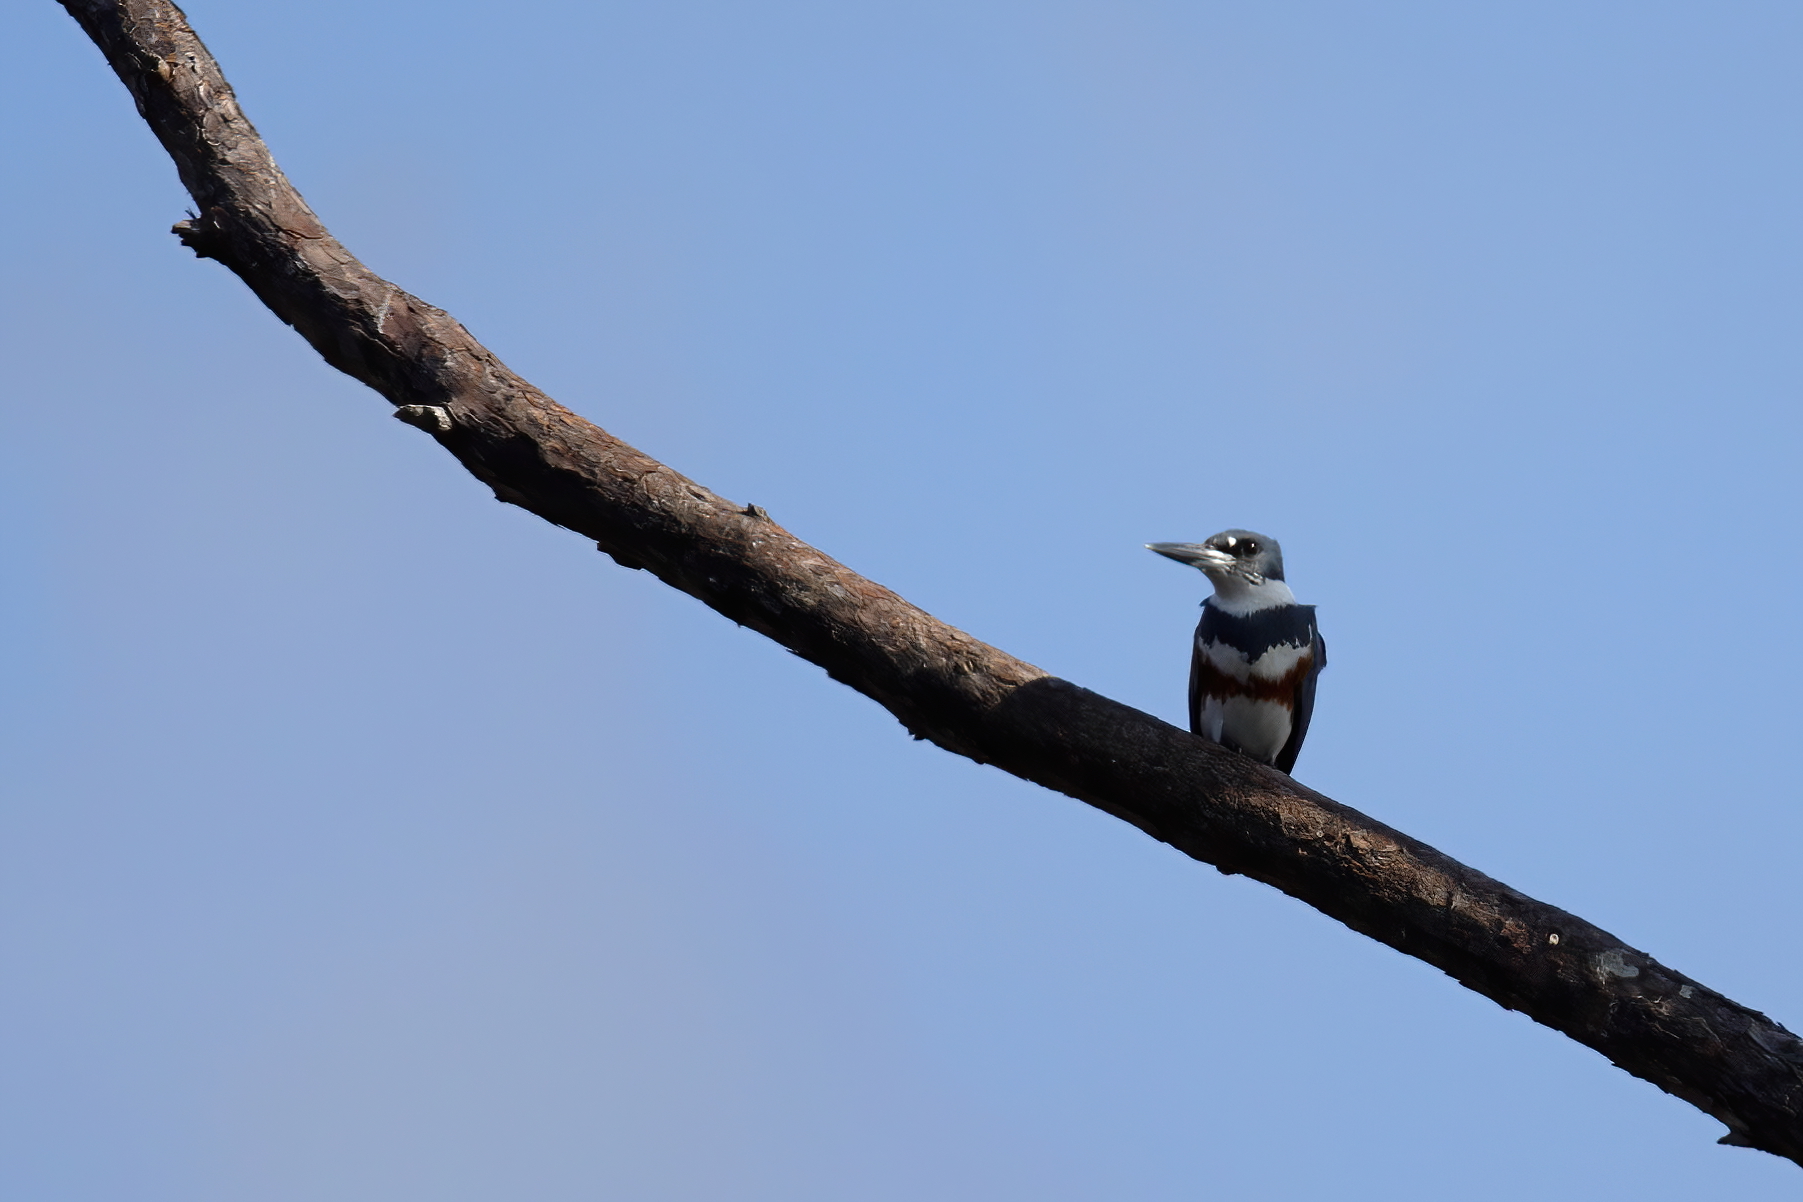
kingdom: Animalia
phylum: Chordata
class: Aves
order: Coraciiformes
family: Alcedinidae
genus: Megaceryle
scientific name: Megaceryle alcyon
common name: Belted kingfisher
